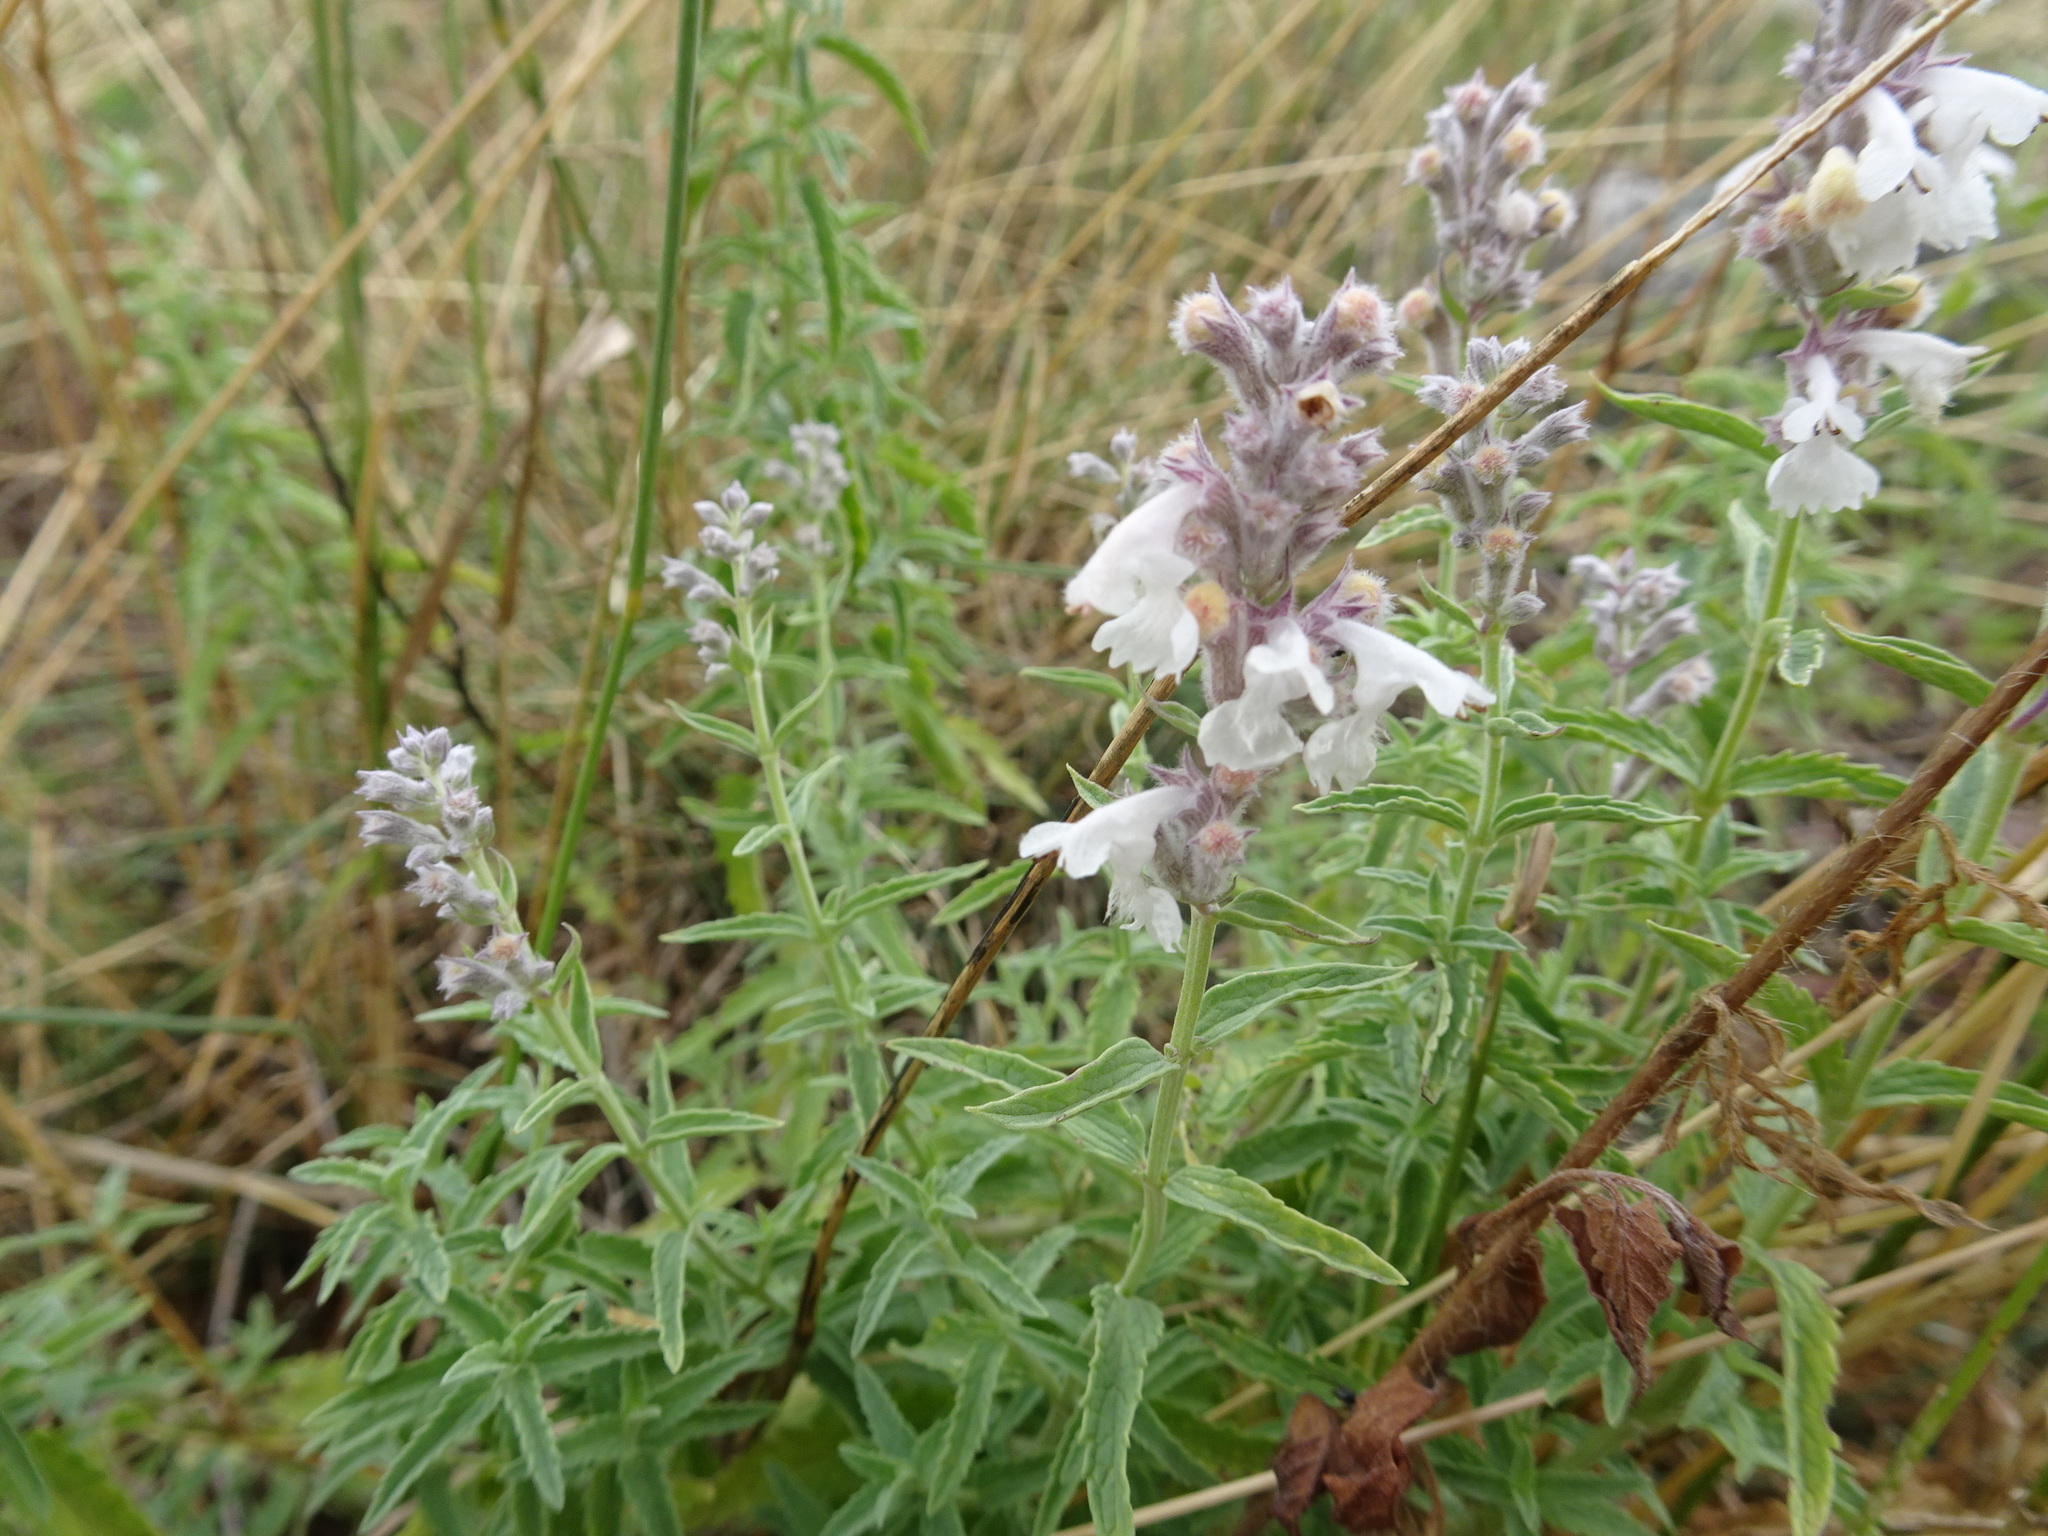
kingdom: Plantae
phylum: Tracheophyta
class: Magnoliopsida
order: Lamiales
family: Lamiaceae
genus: Nepeta
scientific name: Nepeta nepetella
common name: Lesser catmint
